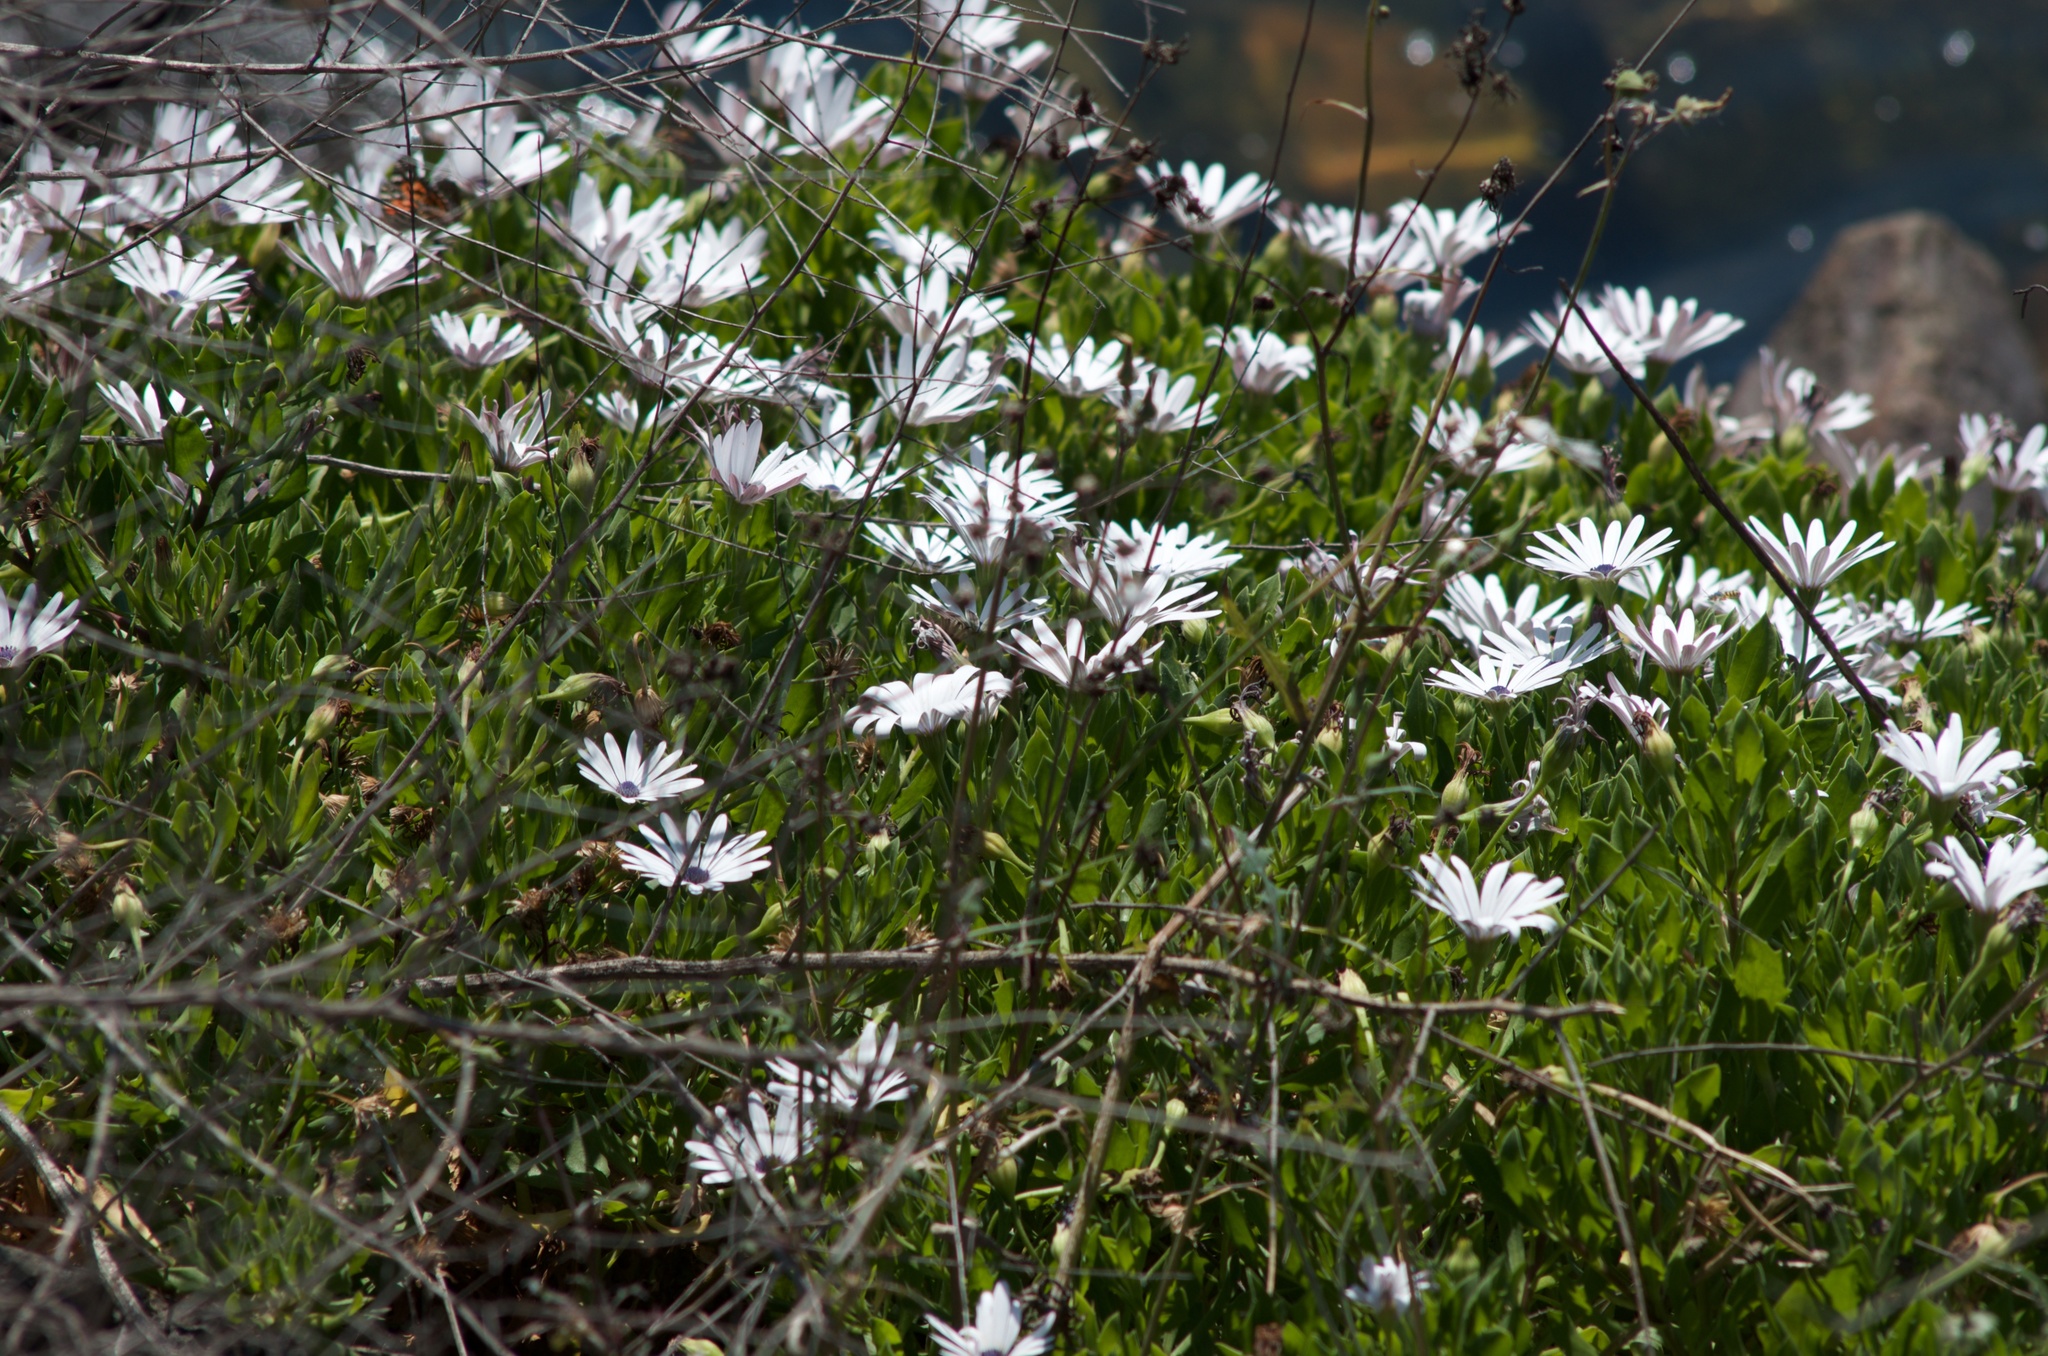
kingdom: Plantae
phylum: Tracheophyta
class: Magnoliopsida
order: Asterales
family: Asteraceae
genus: Dimorphotheca
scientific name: Dimorphotheca fruticosa
